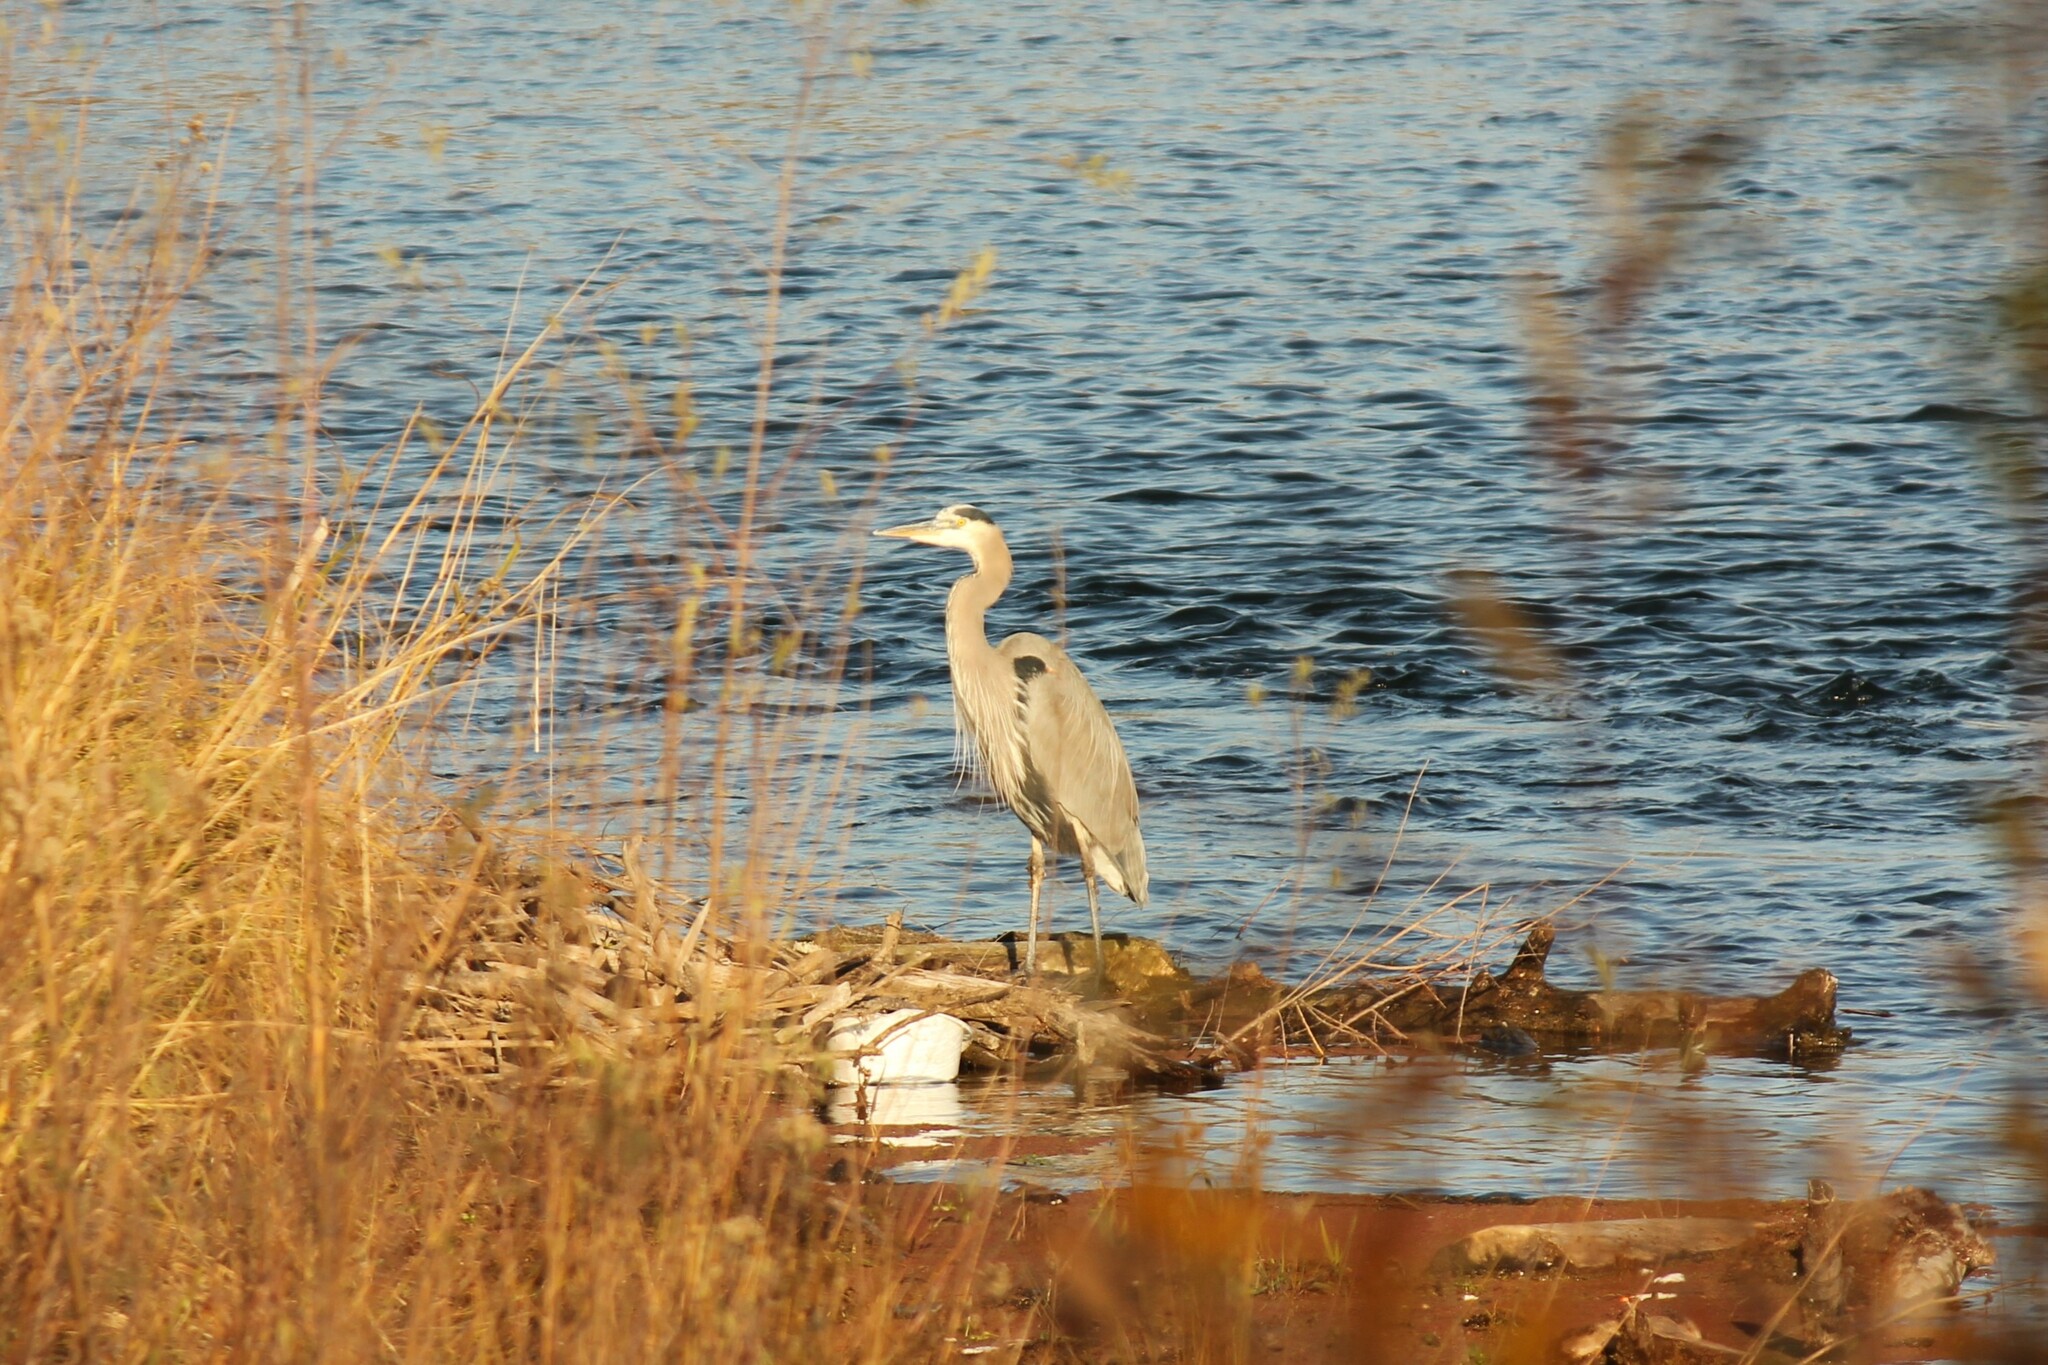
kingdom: Animalia
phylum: Chordata
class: Aves
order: Pelecaniformes
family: Ardeidae
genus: Ardea
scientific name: Ardea herodias
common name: Great blue heron
